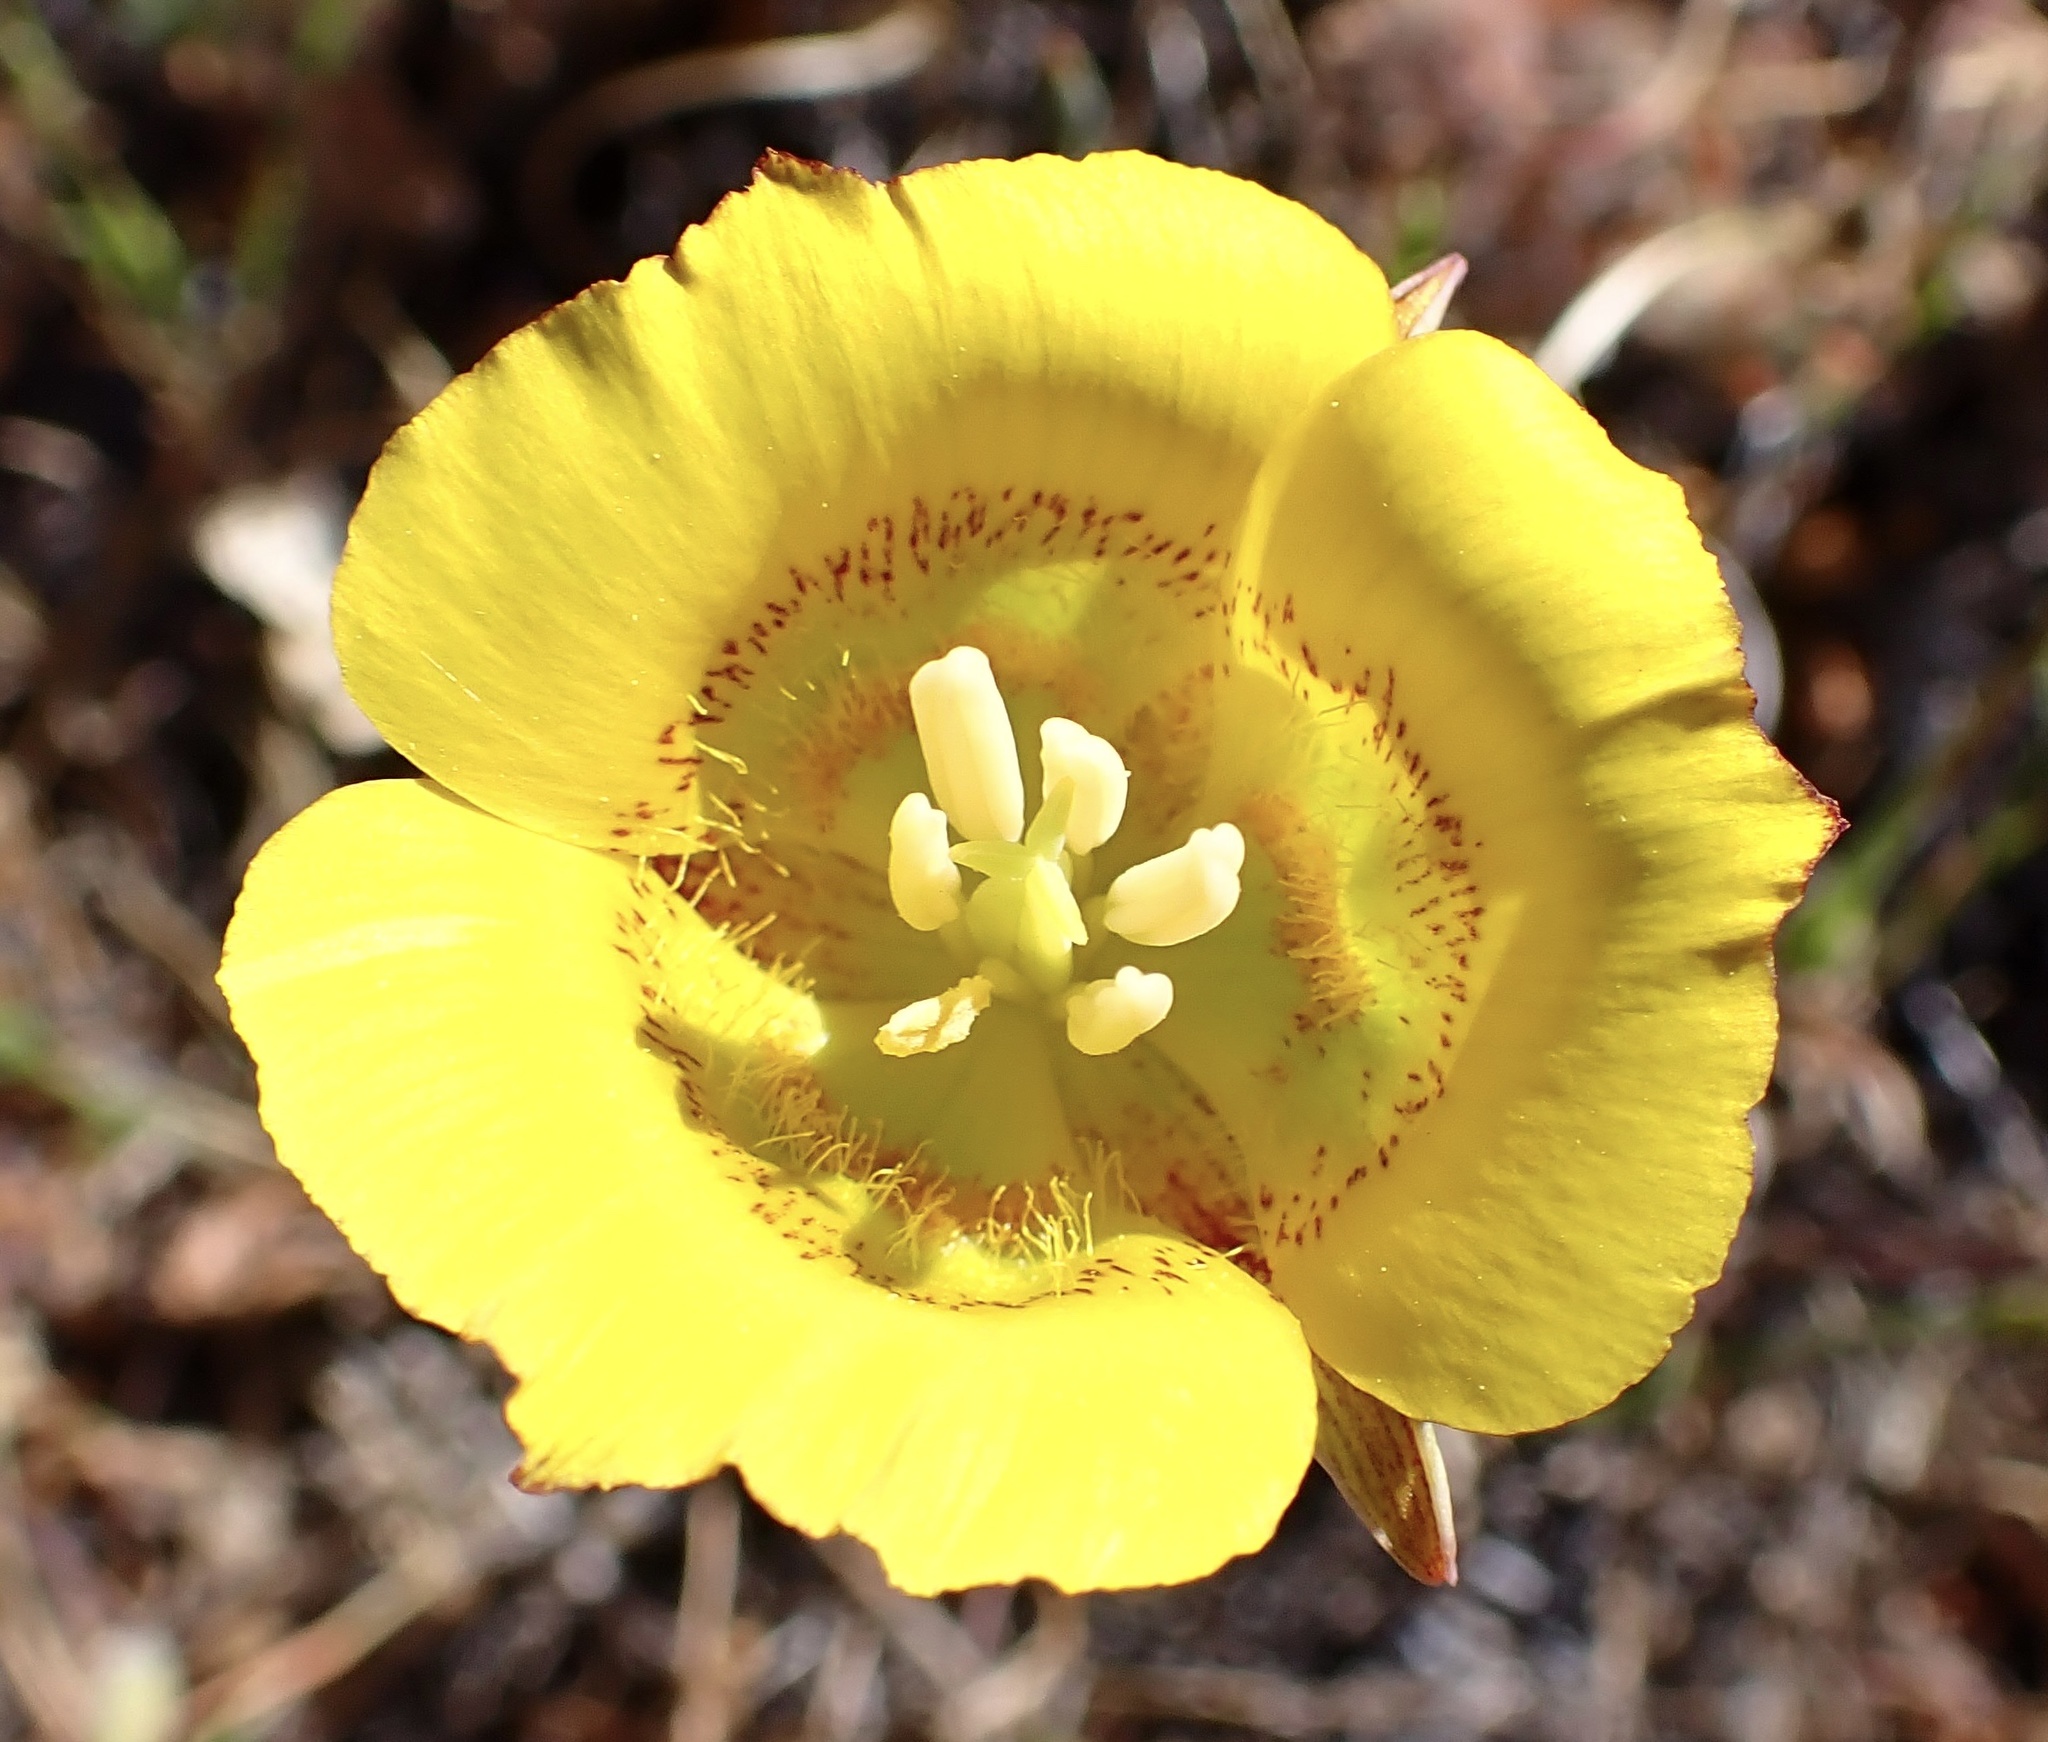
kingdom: Plantae
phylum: Tracheophyta
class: Liliopsida
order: Liliales
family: Liliaceae
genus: Calochortus
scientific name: Calochortus luteus
